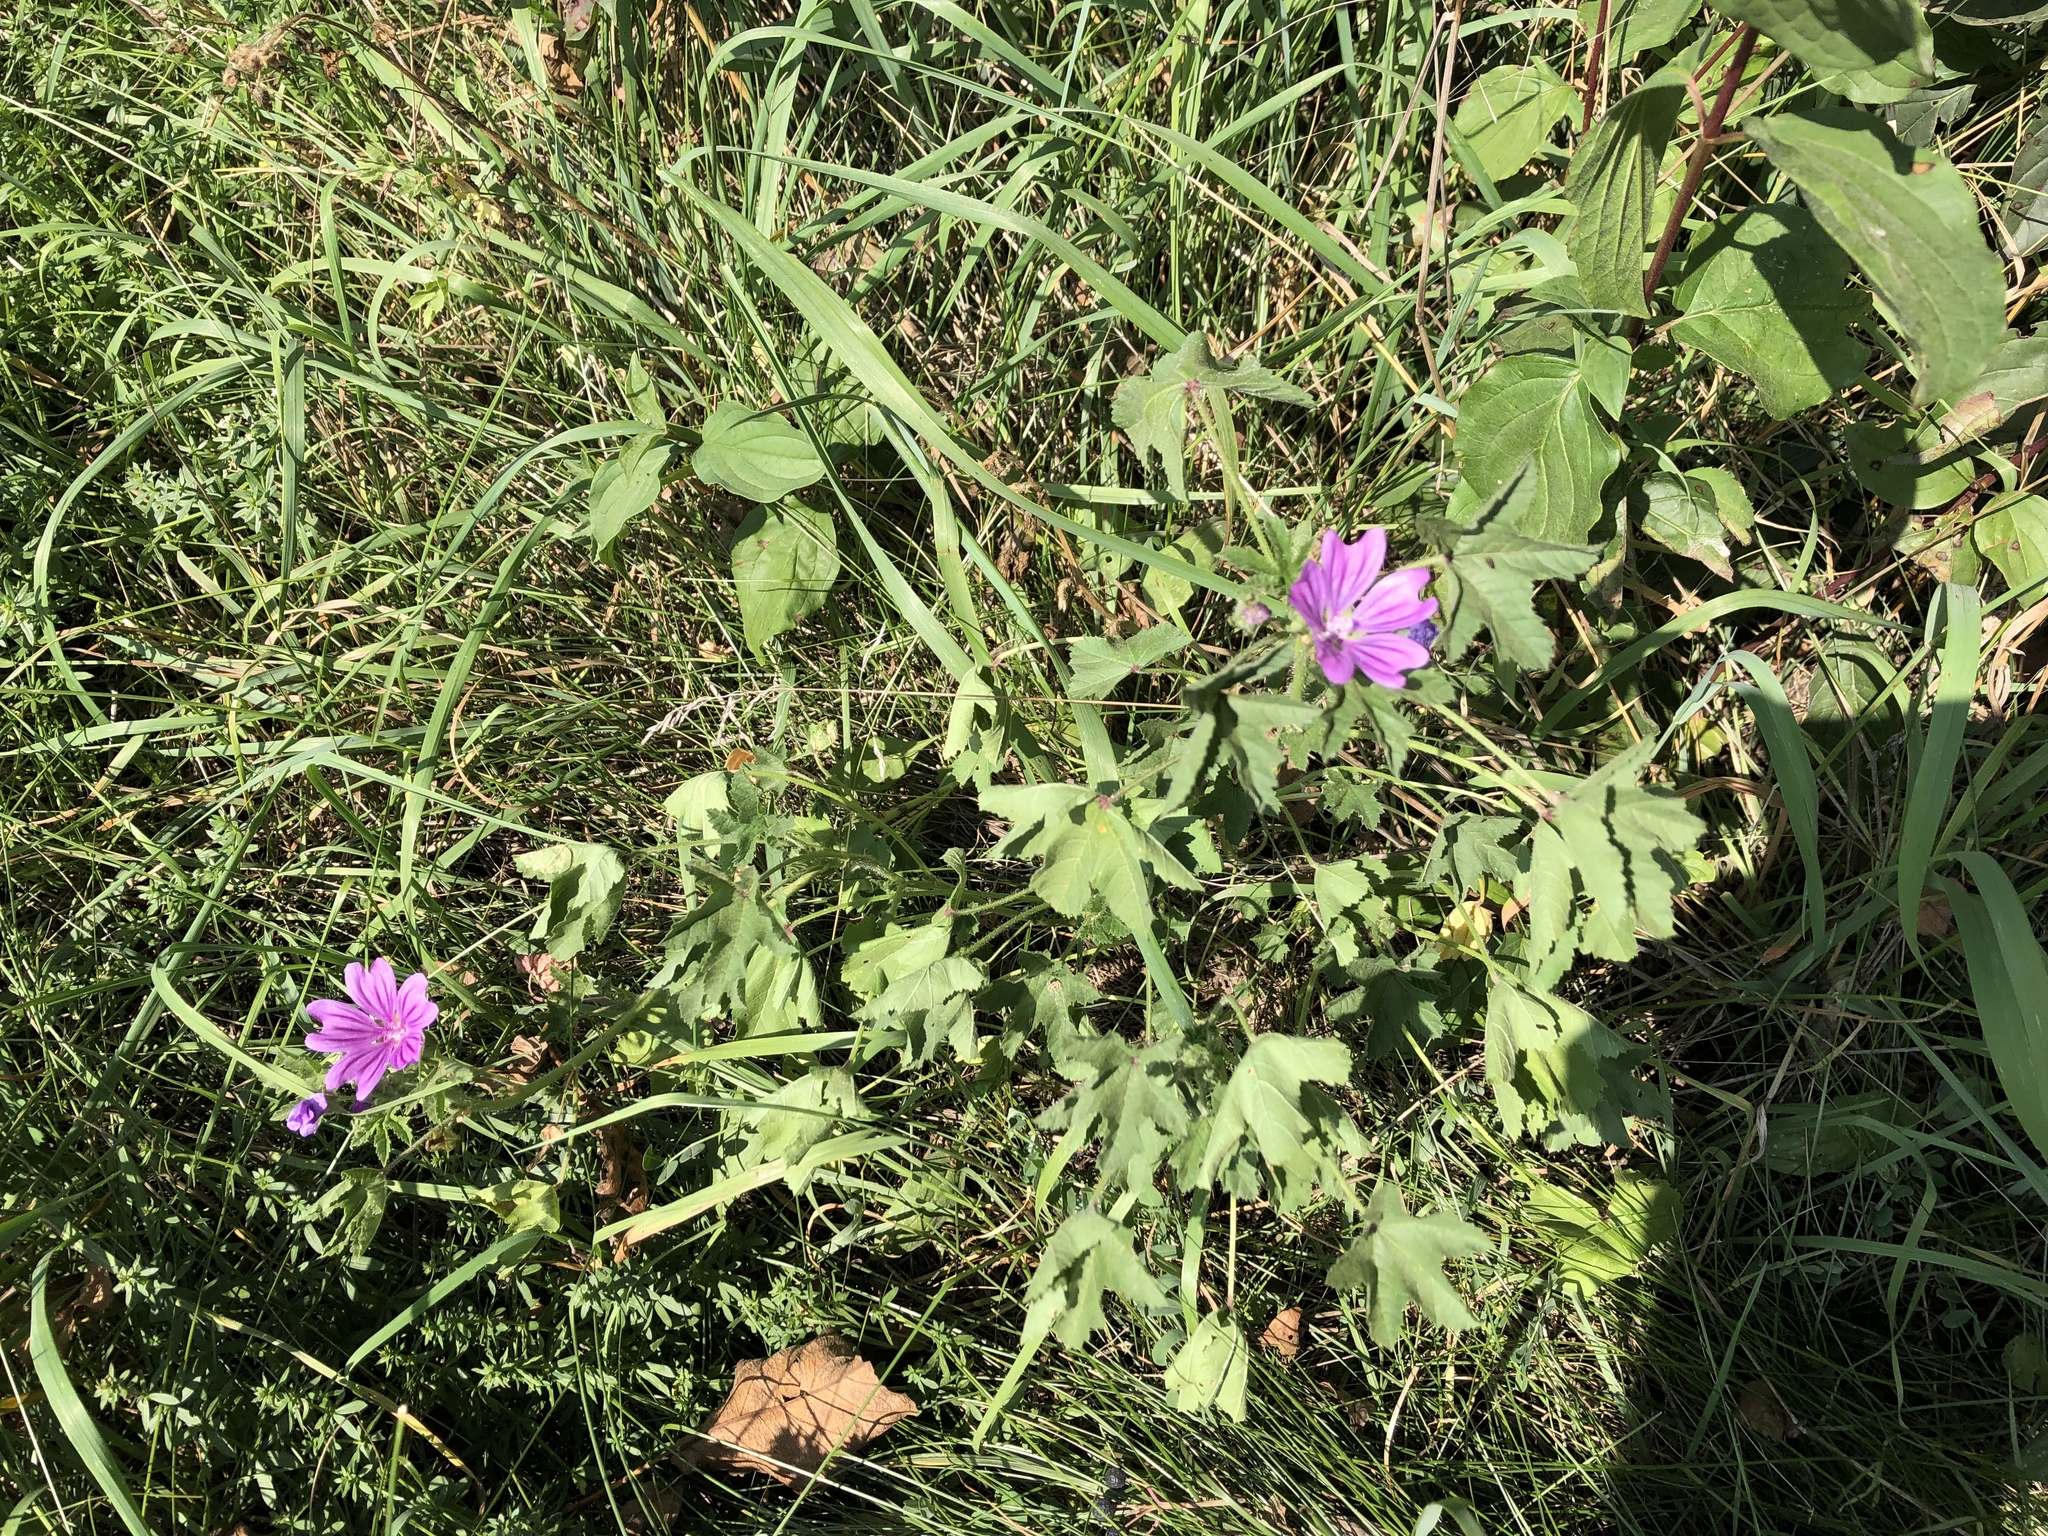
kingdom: Plantae
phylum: Tracheophyta
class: Magnoliopsida
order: Malvales
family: Malvaceae
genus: Malva
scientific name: Malva sylvestris
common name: Common mallow
